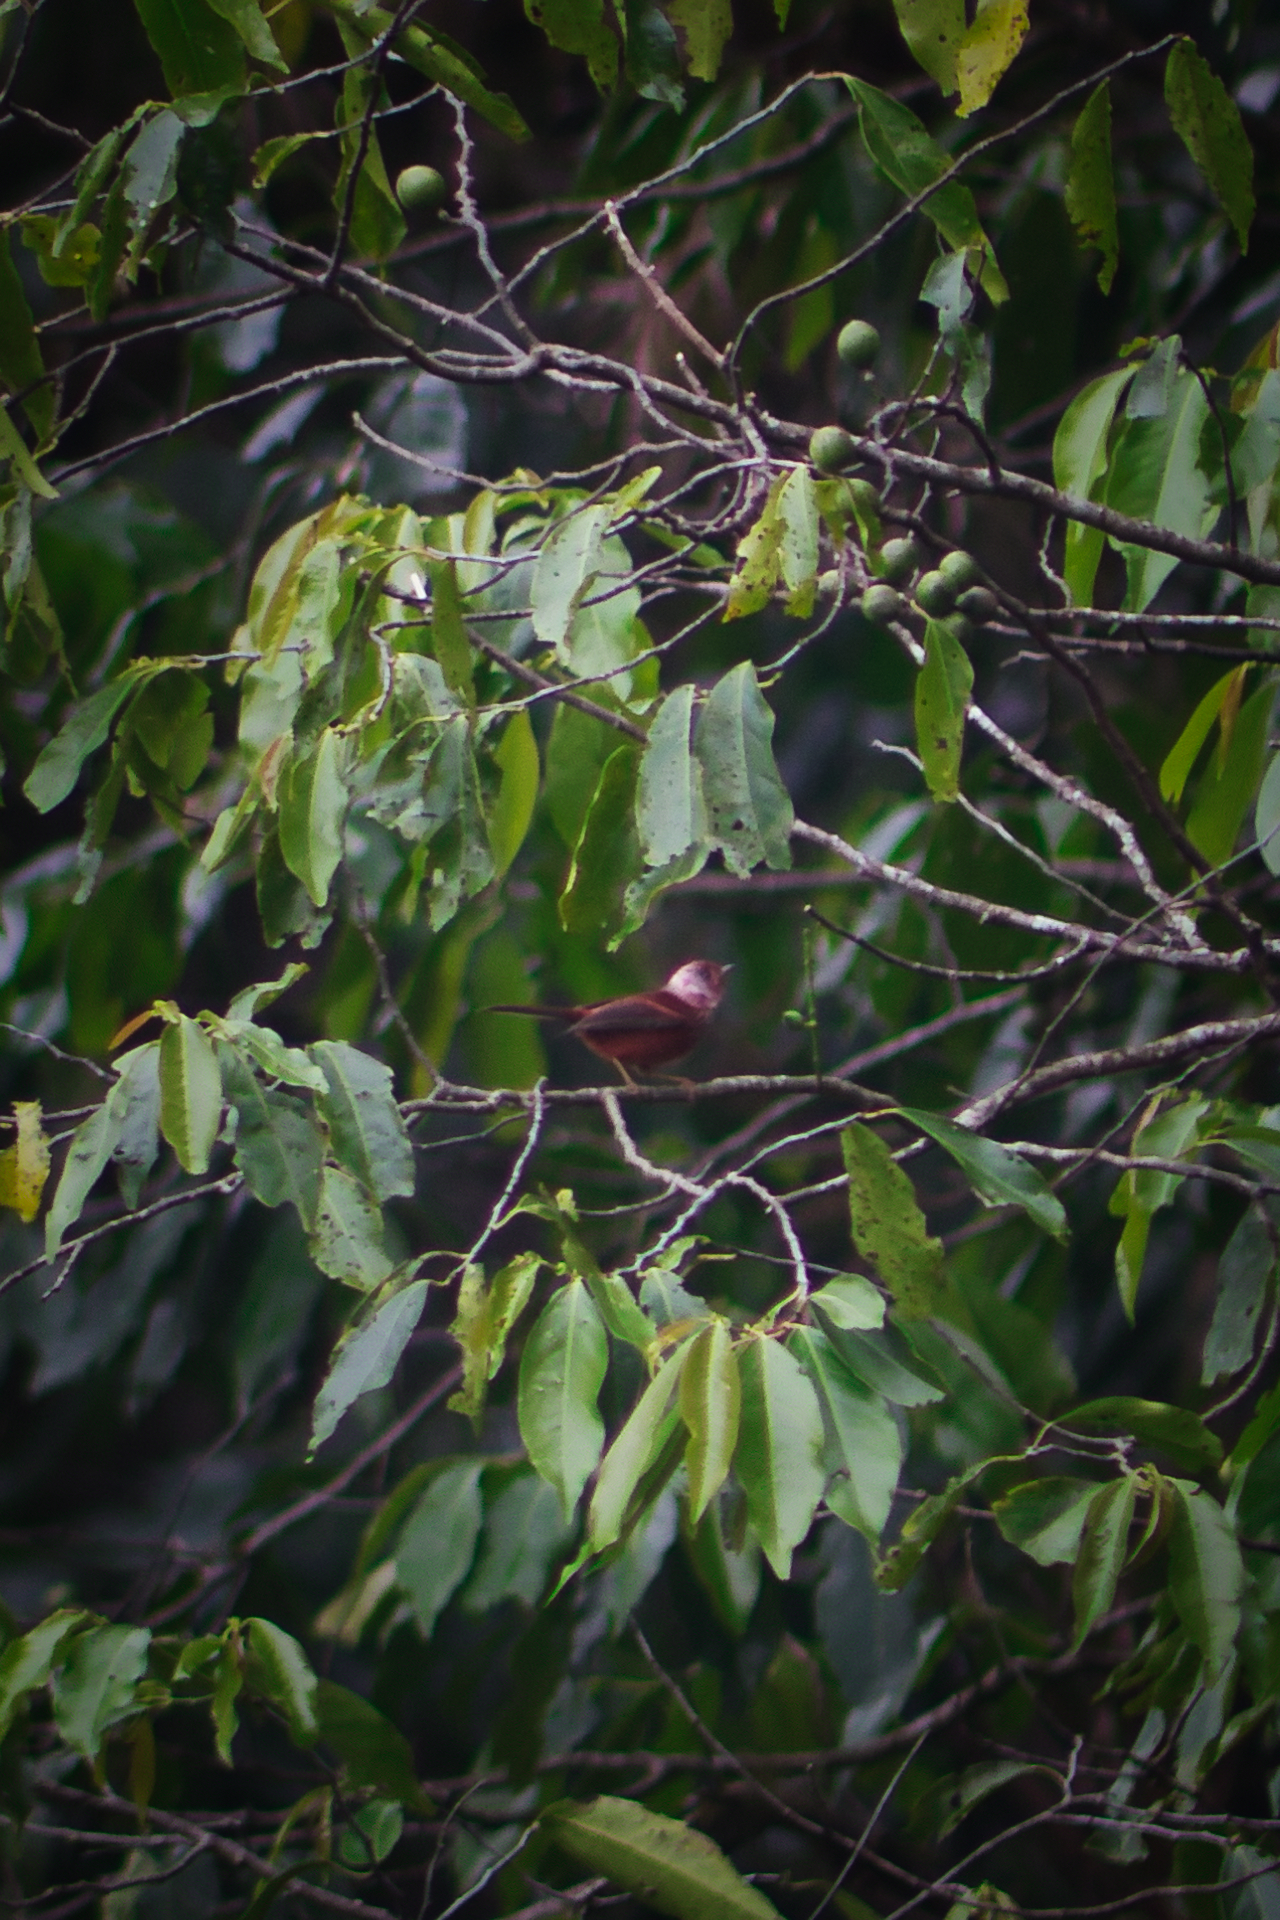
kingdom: Animalia
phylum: Chordata
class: Aves
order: Passeriformes
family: Parulidae
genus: Cardellina
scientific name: Cardellina versicolor
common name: Pink-headed warbler
